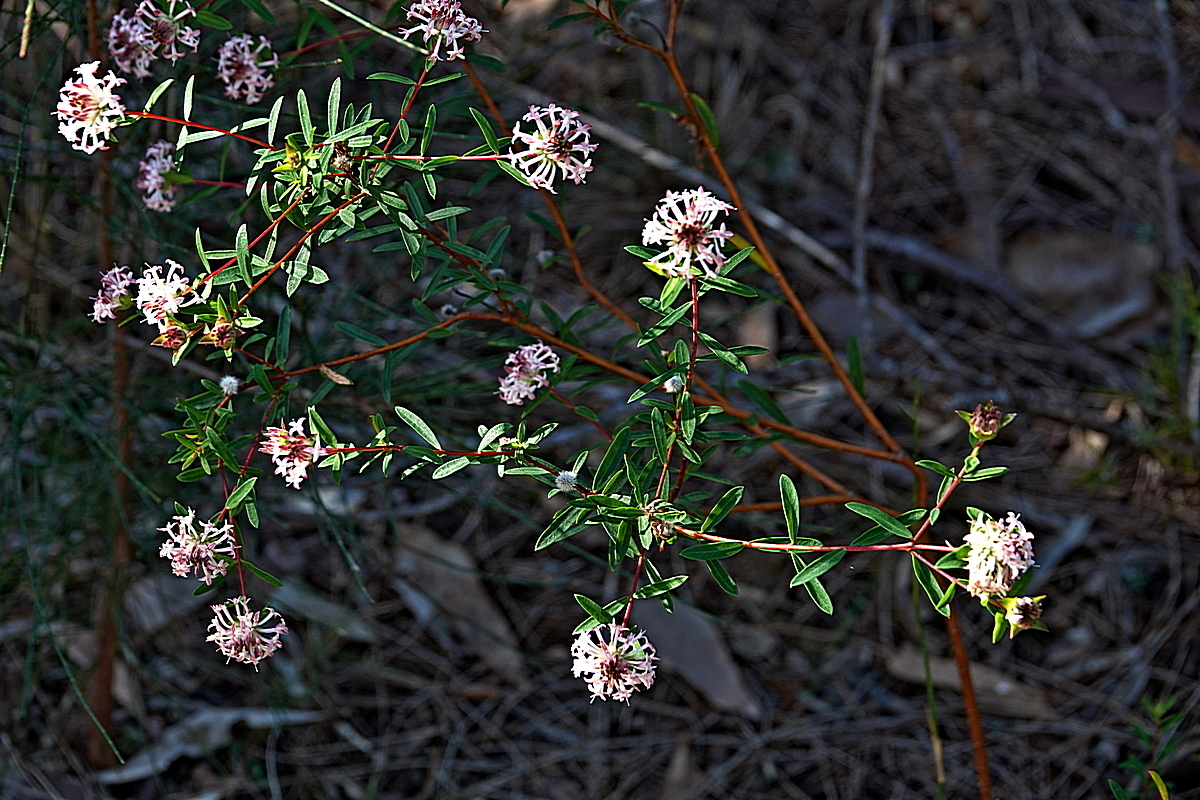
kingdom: Plantae
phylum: Tracheophyta
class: Magnoliopsida
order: Malvales
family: Thymelaeaceae
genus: Pimelea
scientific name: Pimelea linifolia
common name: Queen-of-the-bush
